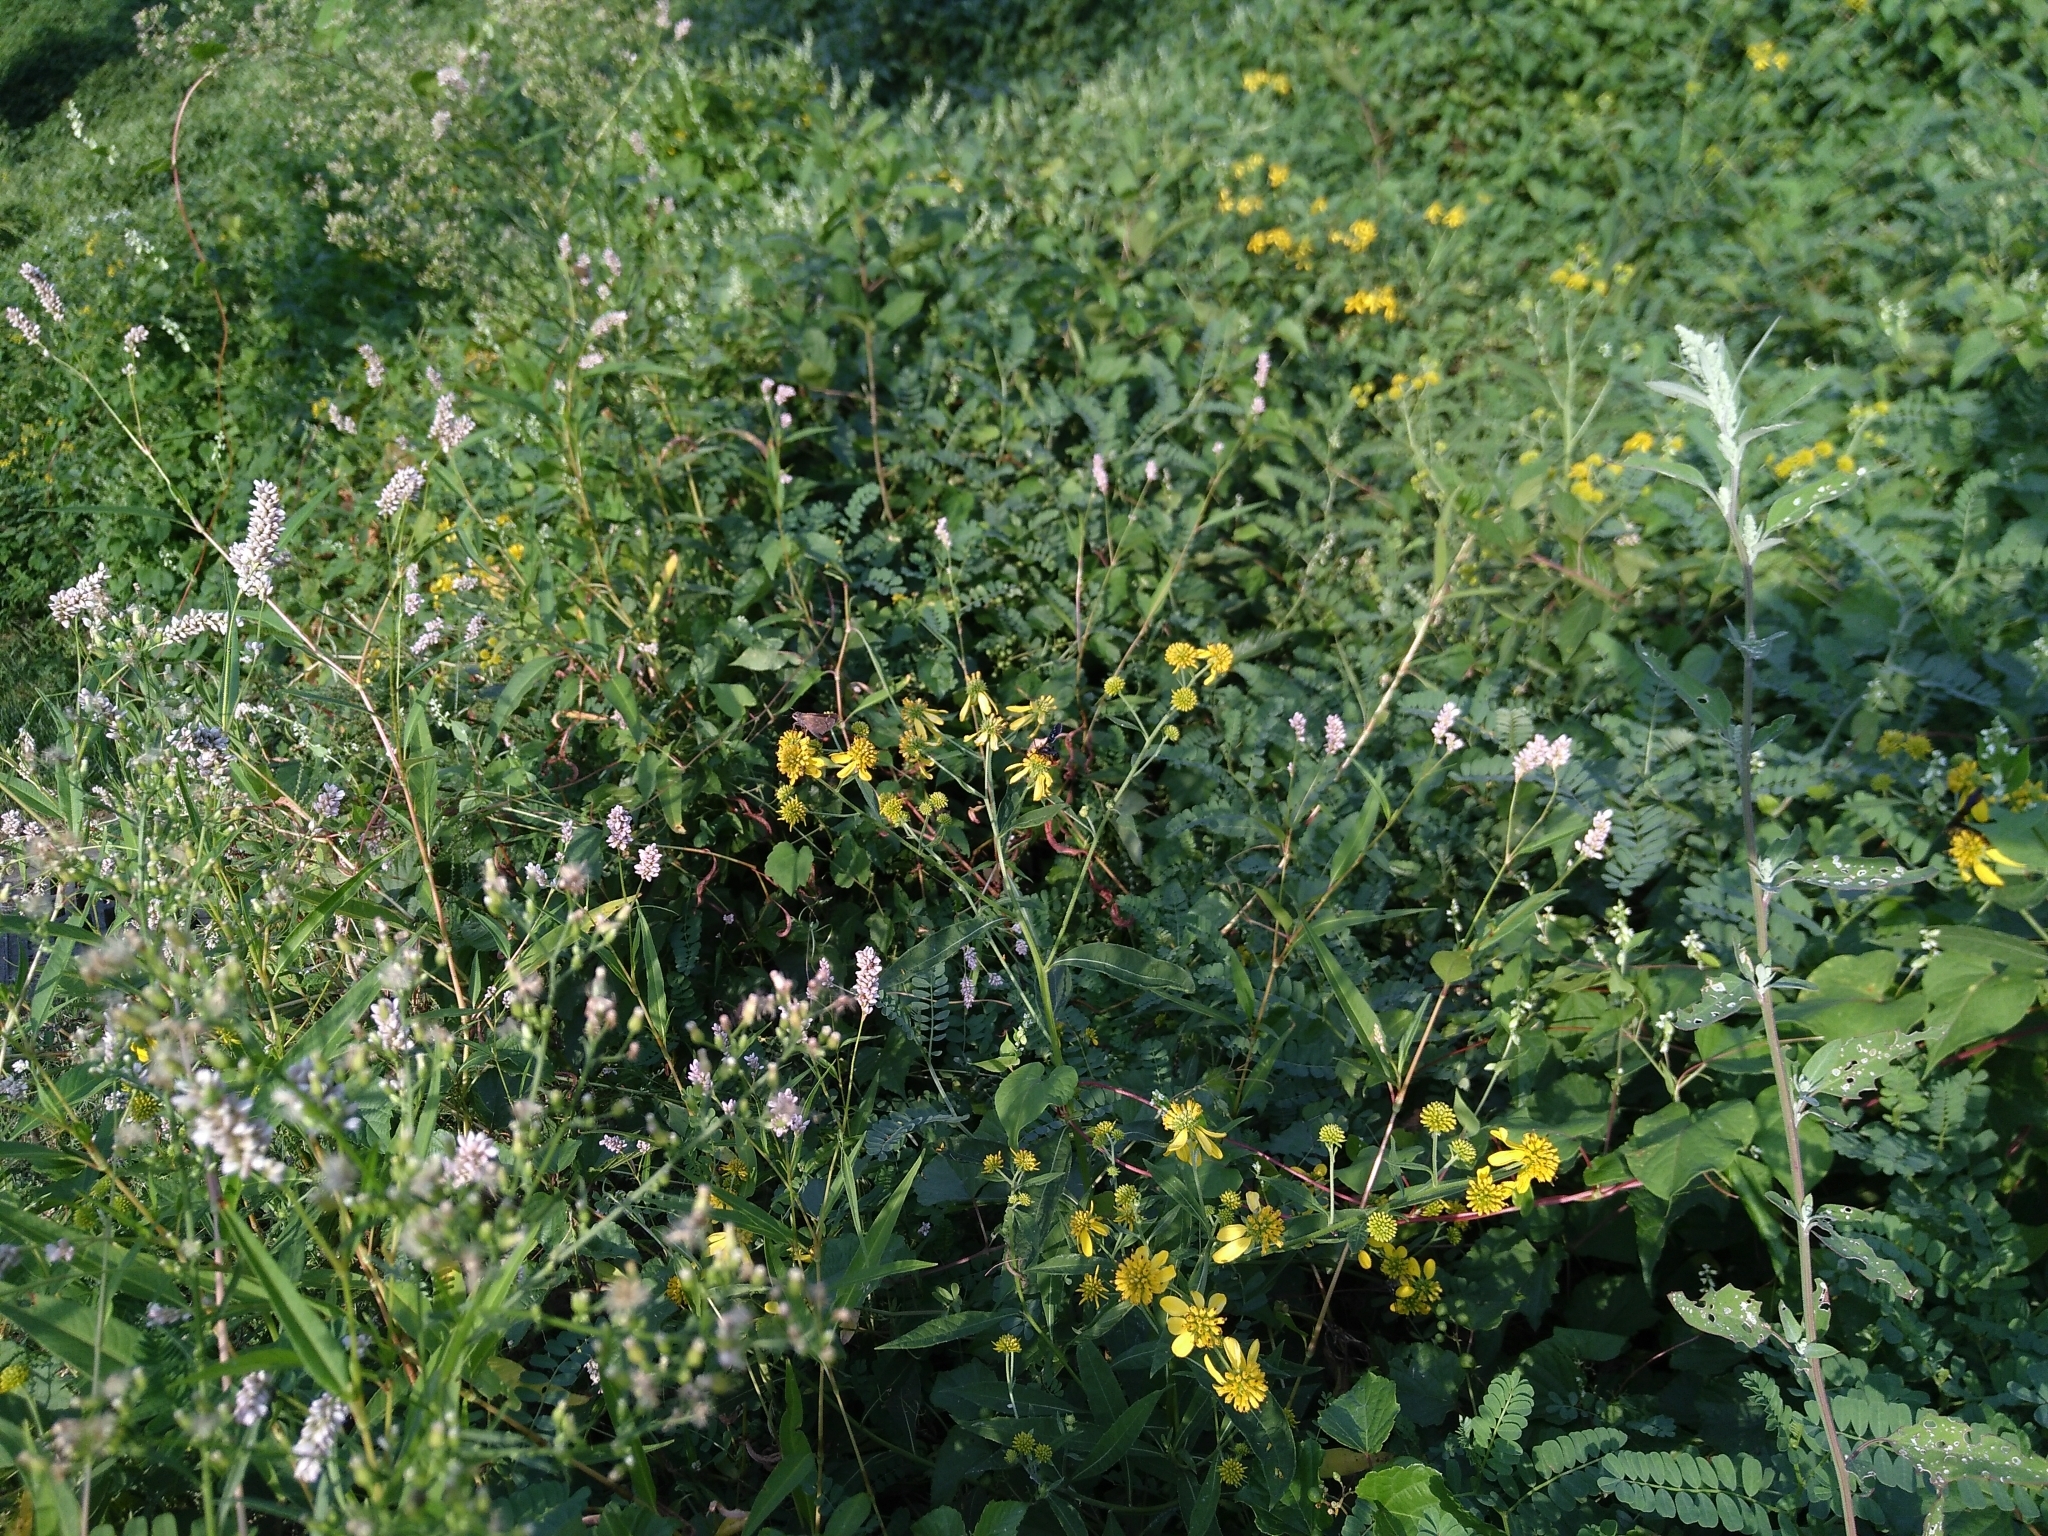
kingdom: Animalia
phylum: Arthropoda
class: Insecta
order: Lepidoptera
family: Hesperiidae
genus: Atalopedes
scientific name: Atalopedes
